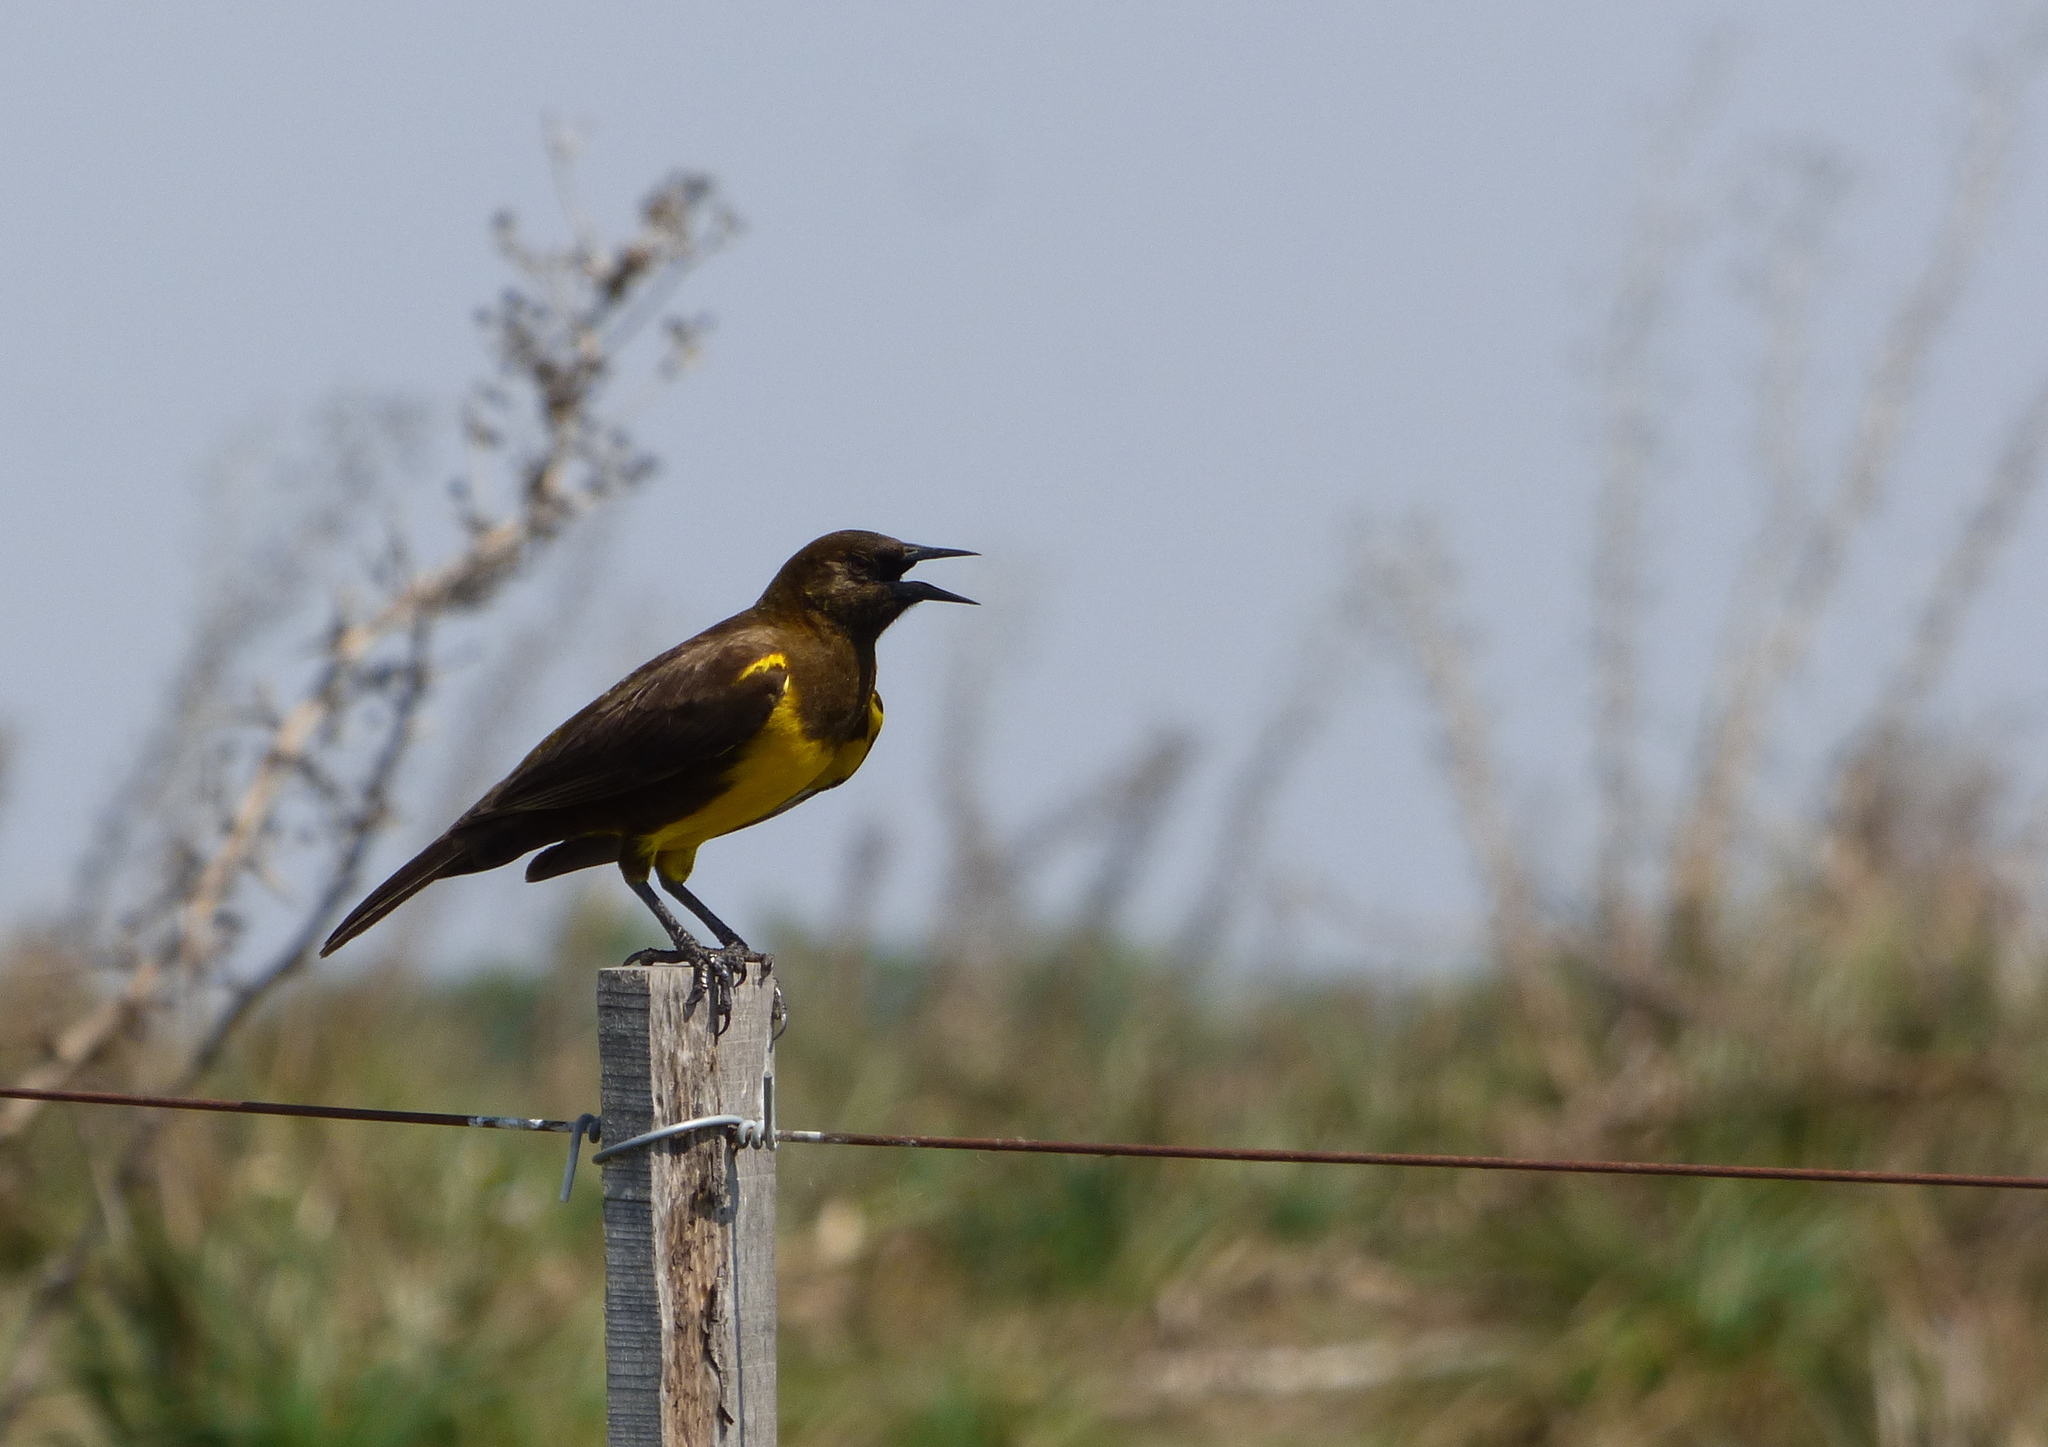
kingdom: Animalia
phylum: Chordata
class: Aves
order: Passeriformes
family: Icteridae
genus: Pseudoleistes
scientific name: Pseudoleistes virescens
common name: Brown-and-yellow marshbird
